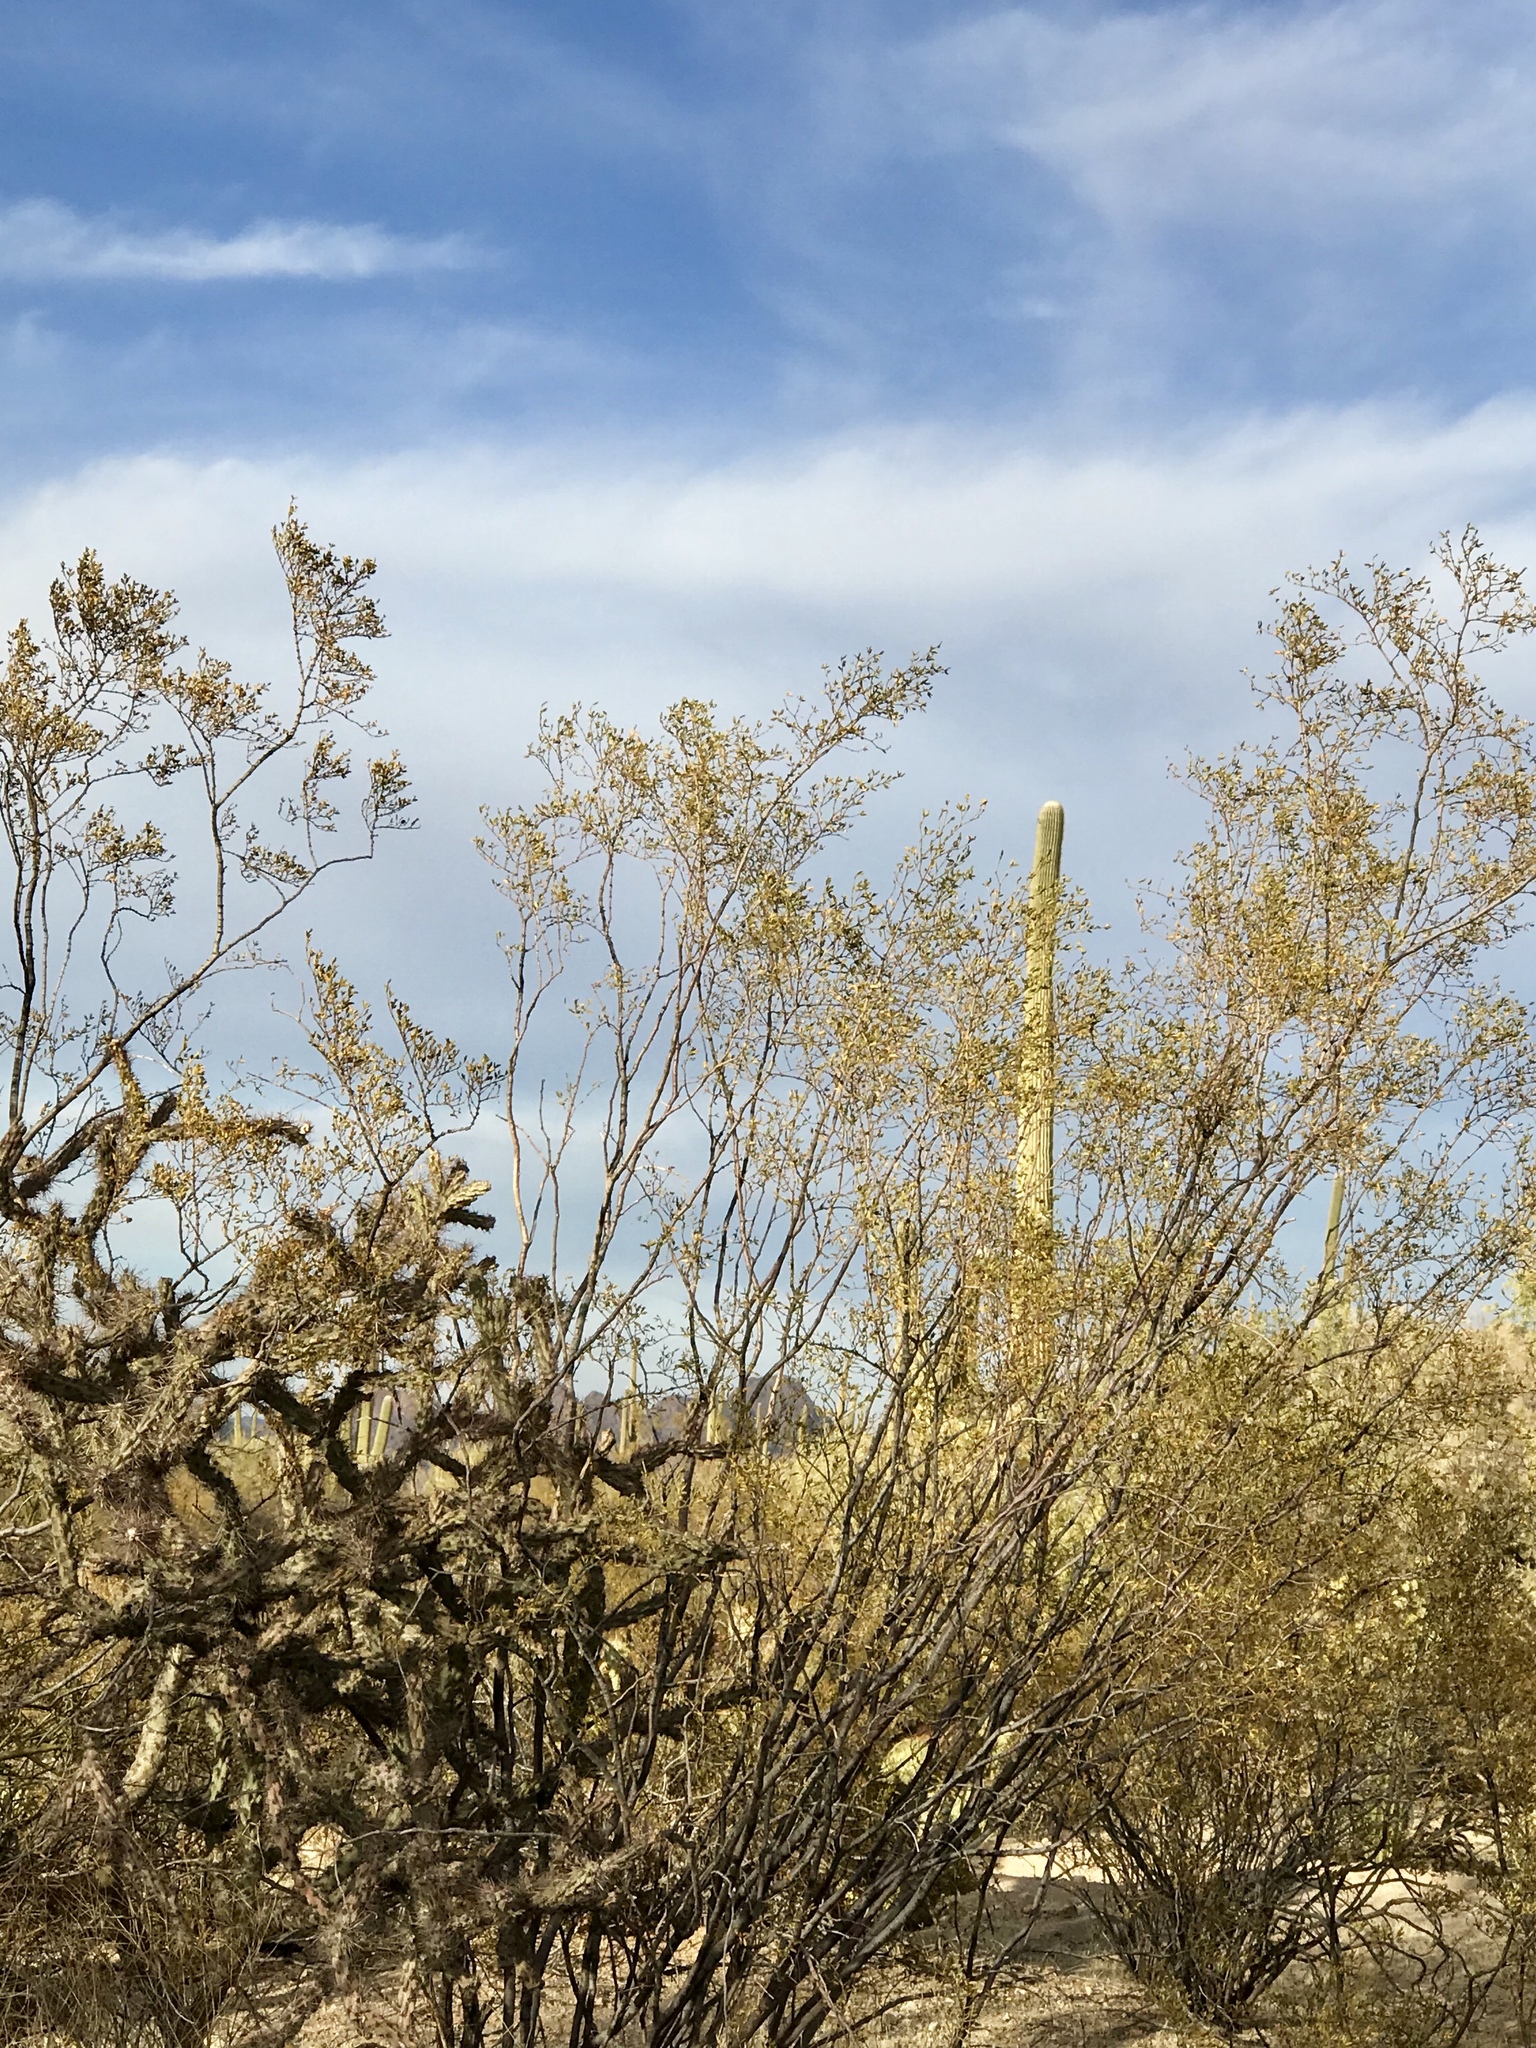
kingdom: Plantae
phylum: Tracheophyta
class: Magnoliopsida
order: Zygophyllales
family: Zygophyllaceae
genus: Larrea
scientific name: Larrea tridentata
